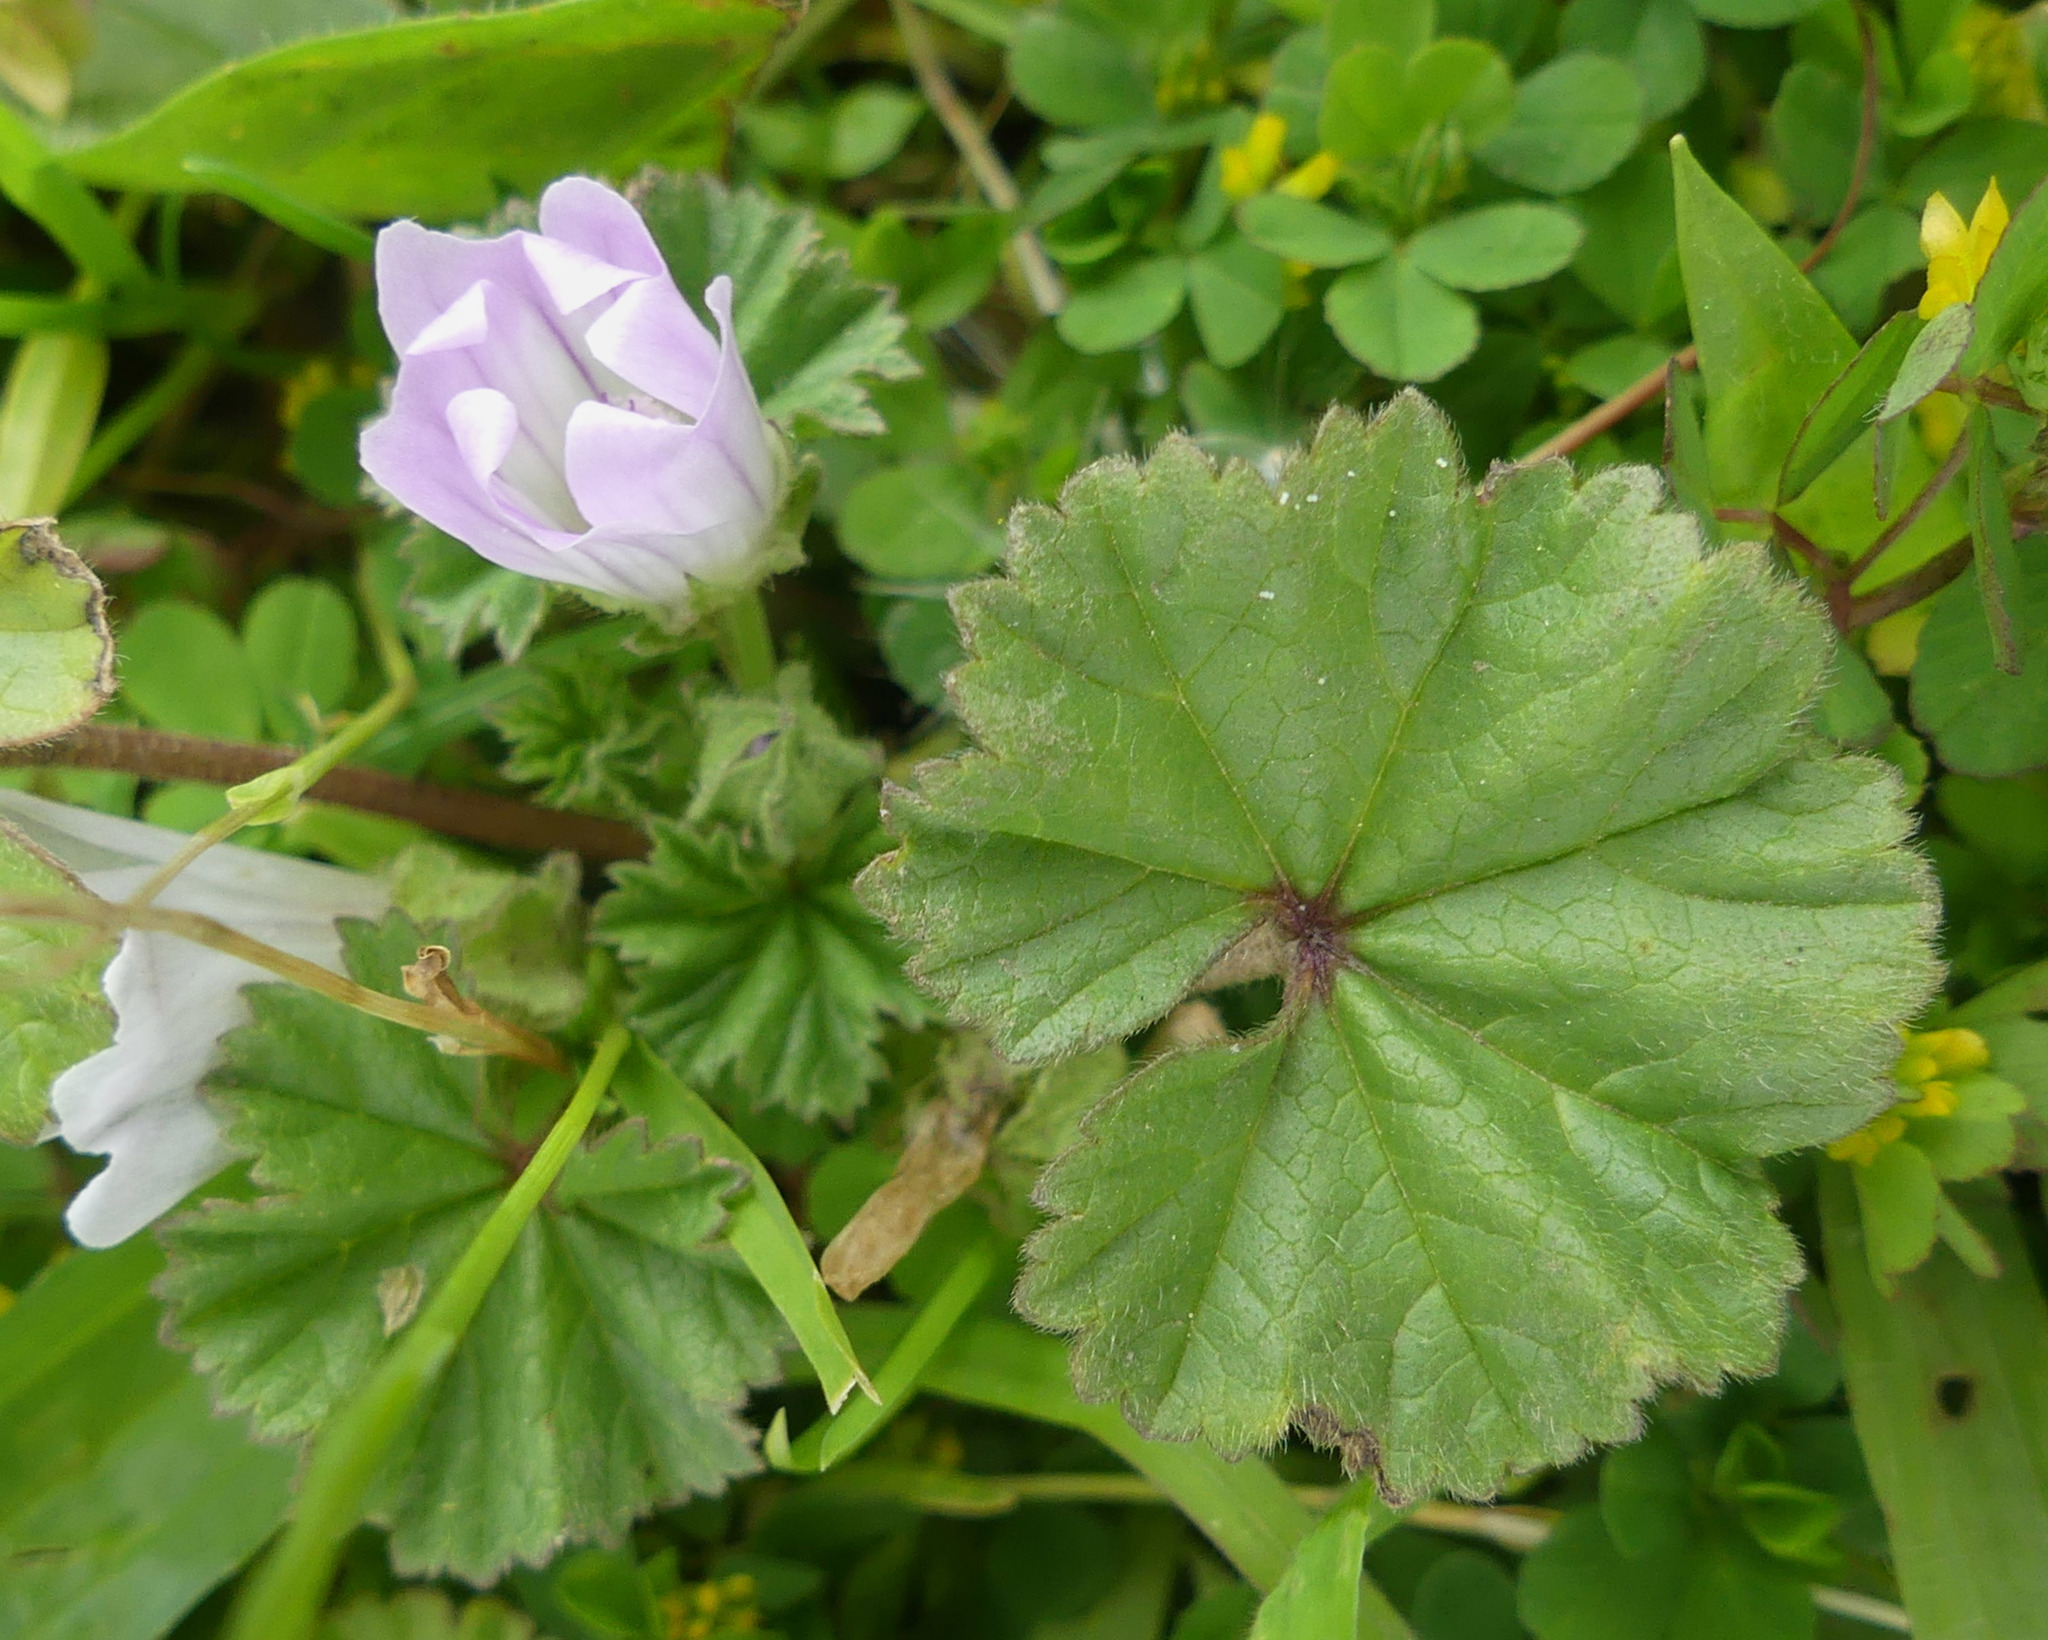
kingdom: Plantae
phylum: Tracheophyta
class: Magnoliopsida
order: Malvales
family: Malvaceae
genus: Malva
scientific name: Malva neglecta
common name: Common mallow
